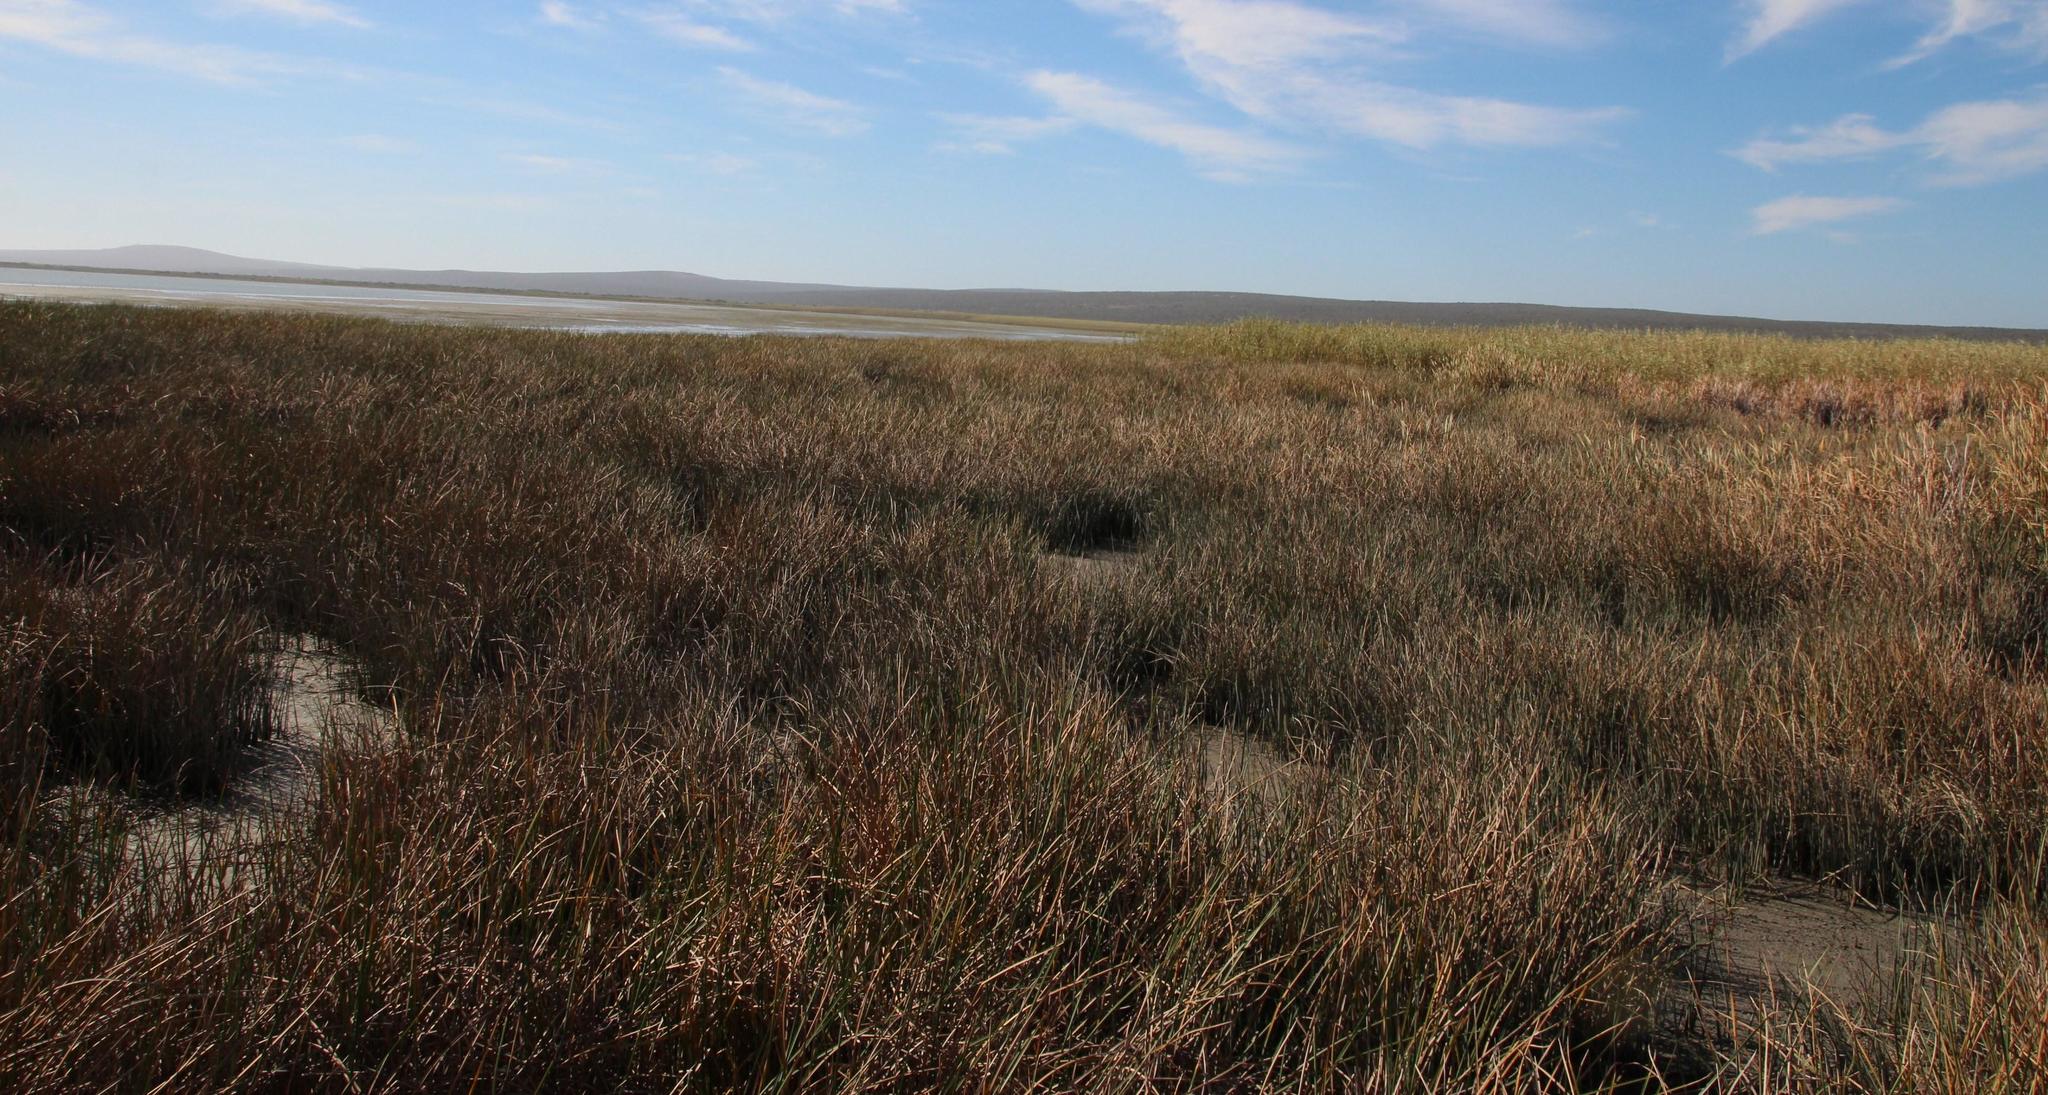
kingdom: Plantae
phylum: Tracheophyta
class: Liliopsida
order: Poales
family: Poaceae
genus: Phragmites
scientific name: Phragmites australis
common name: Common reed
